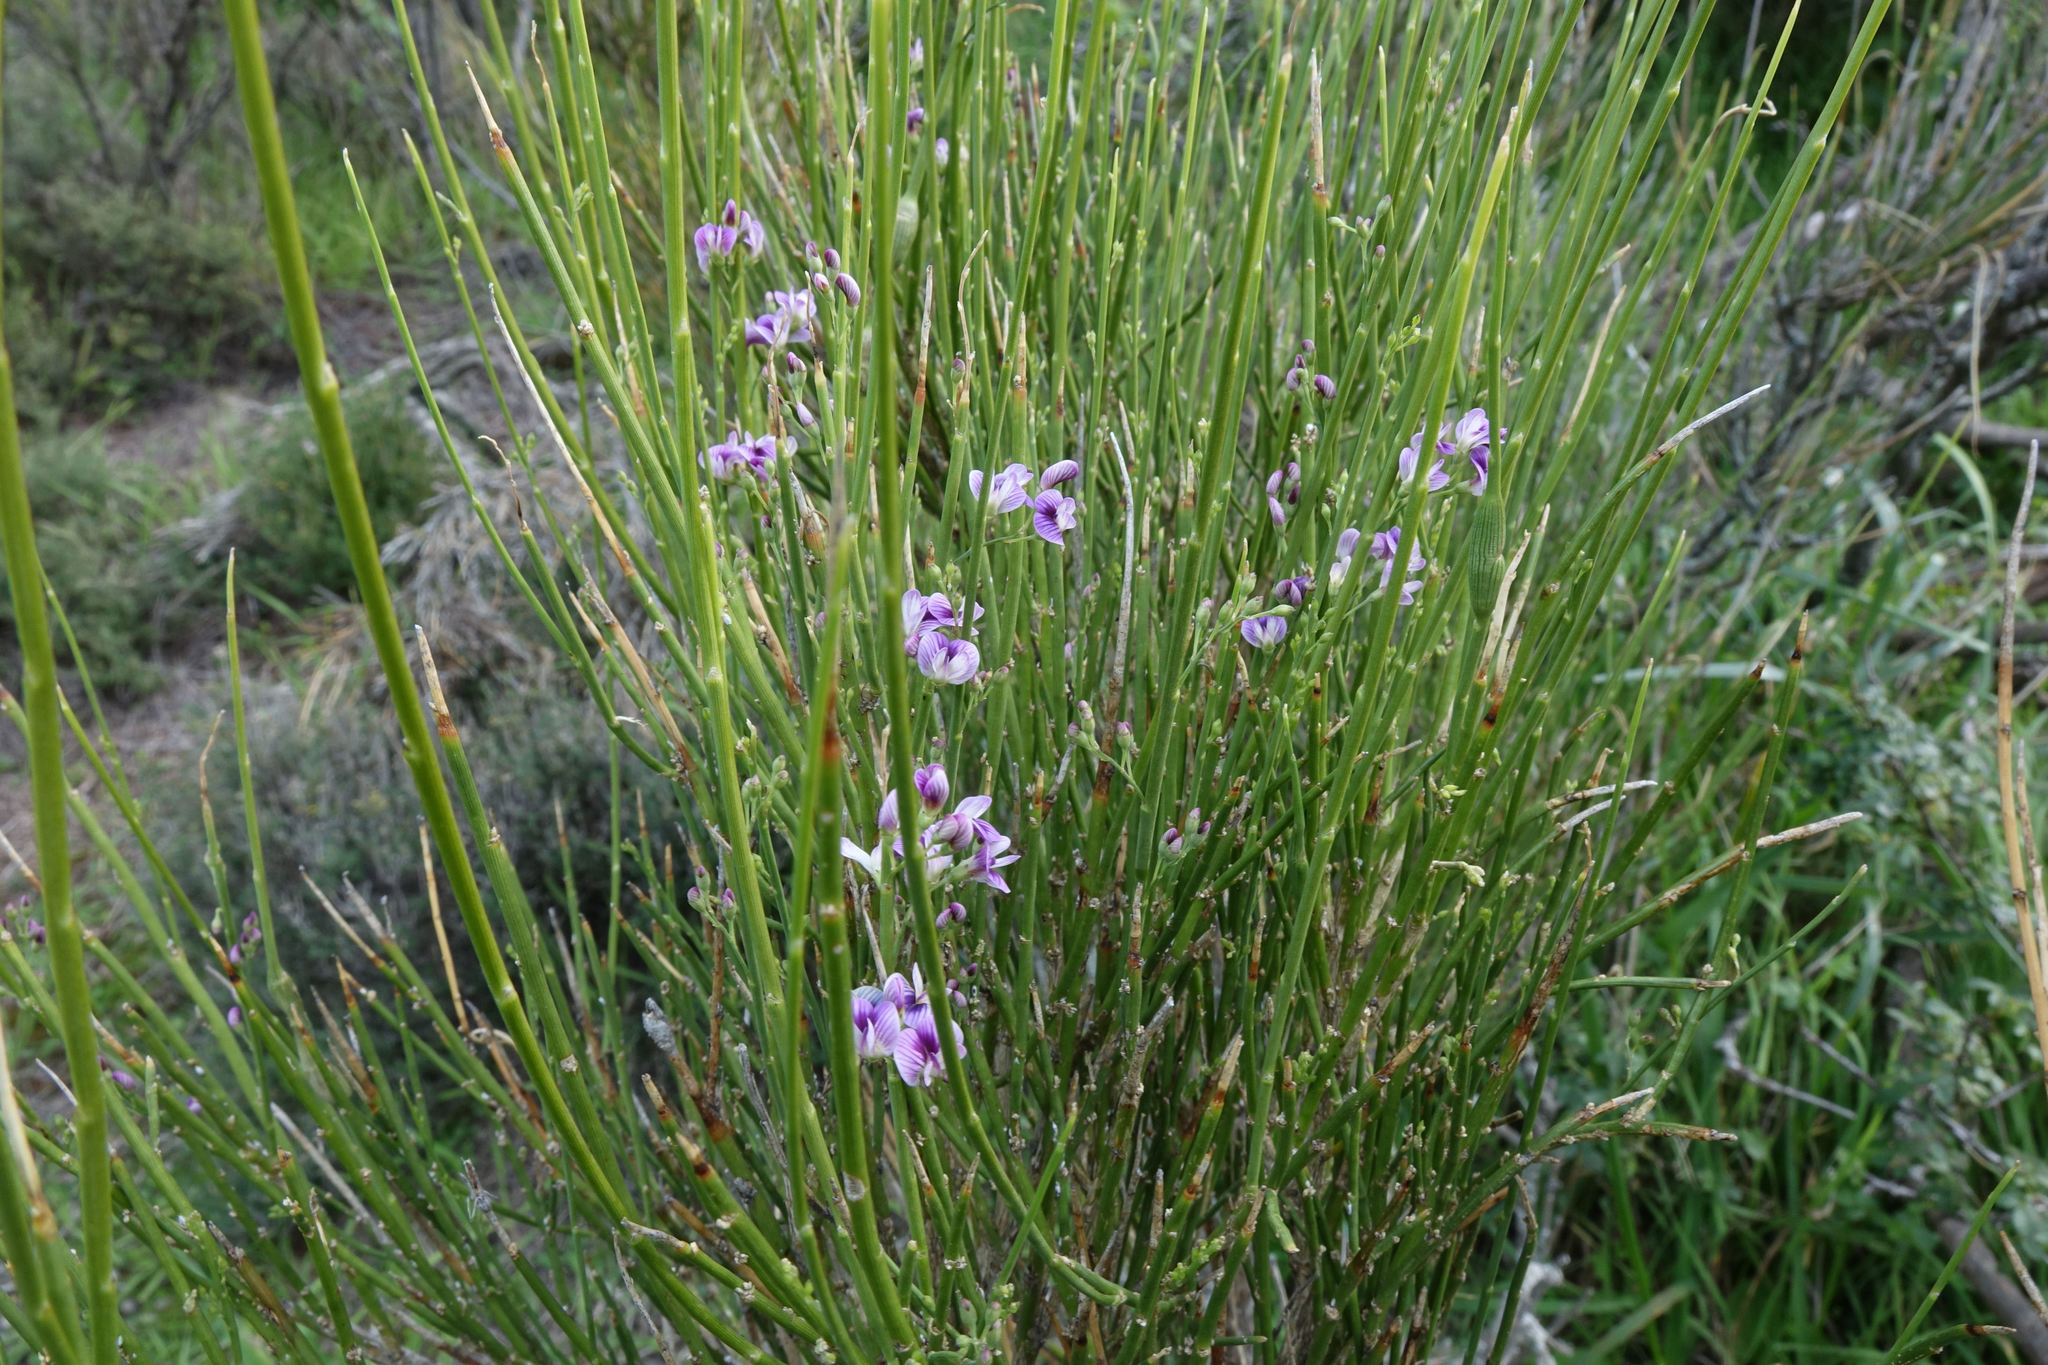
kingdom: Plantae
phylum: Tracheophyta
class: Magnoliopsida
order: Fabales
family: Fabaceae
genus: Carmichaelia
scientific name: Carmichaelia compacta
